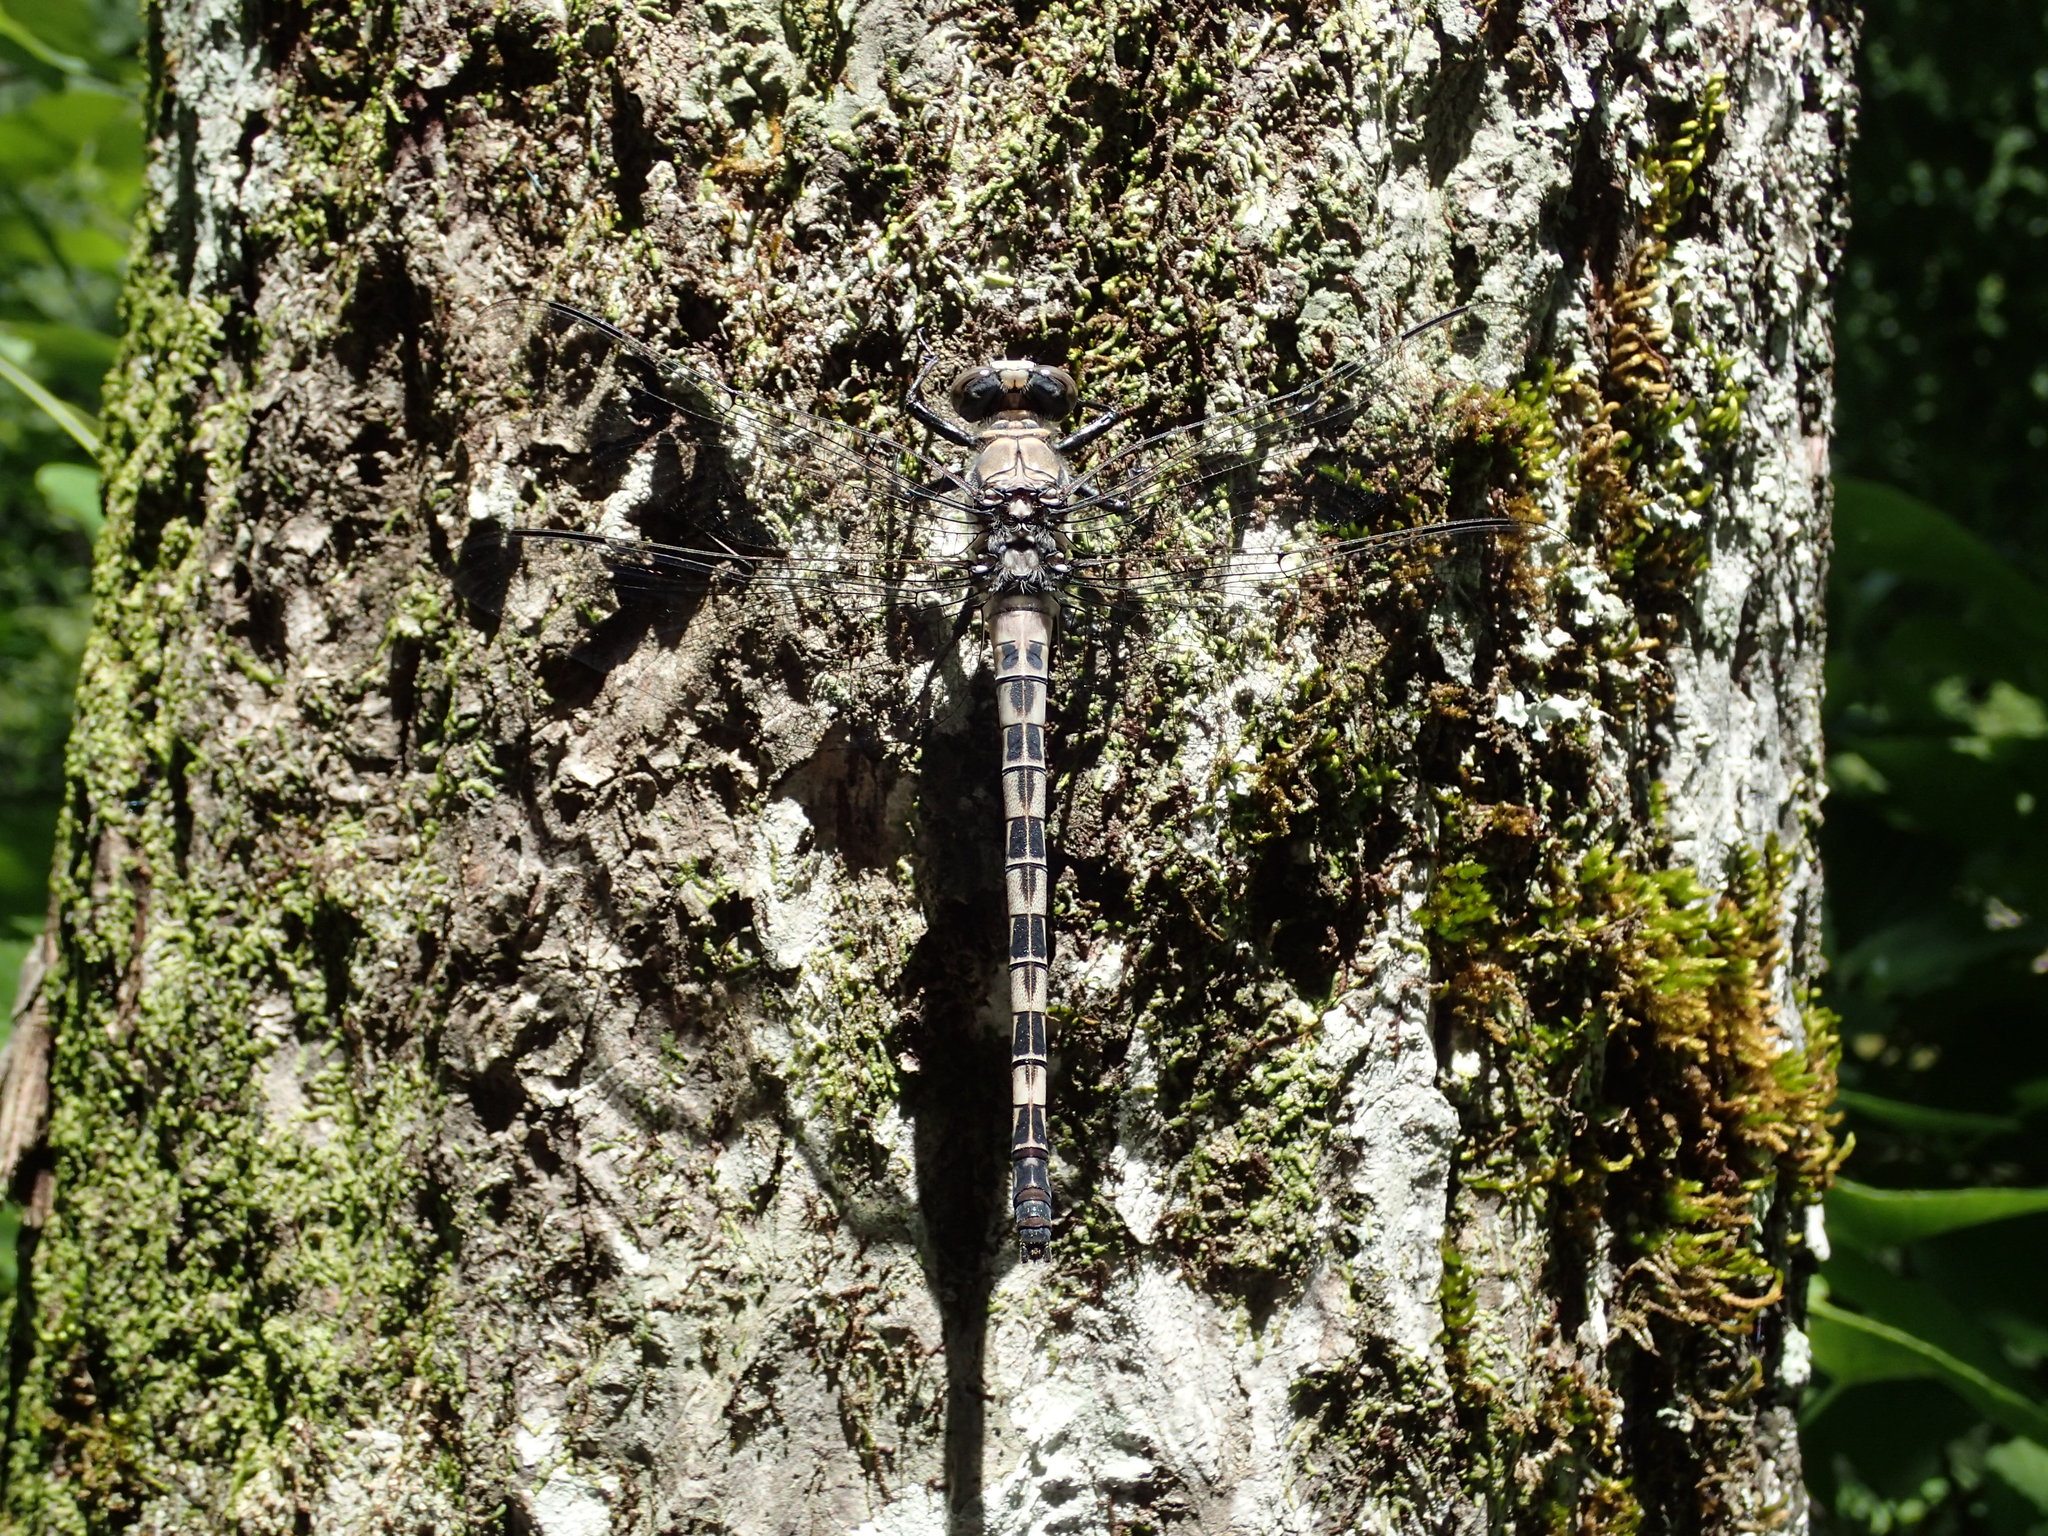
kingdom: Animalia
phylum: Arthropoda
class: Insecta
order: Odonata
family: Petaluridae
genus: Tachopteryx
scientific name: Tachopteryx thoreyi
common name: Gray petaltail
